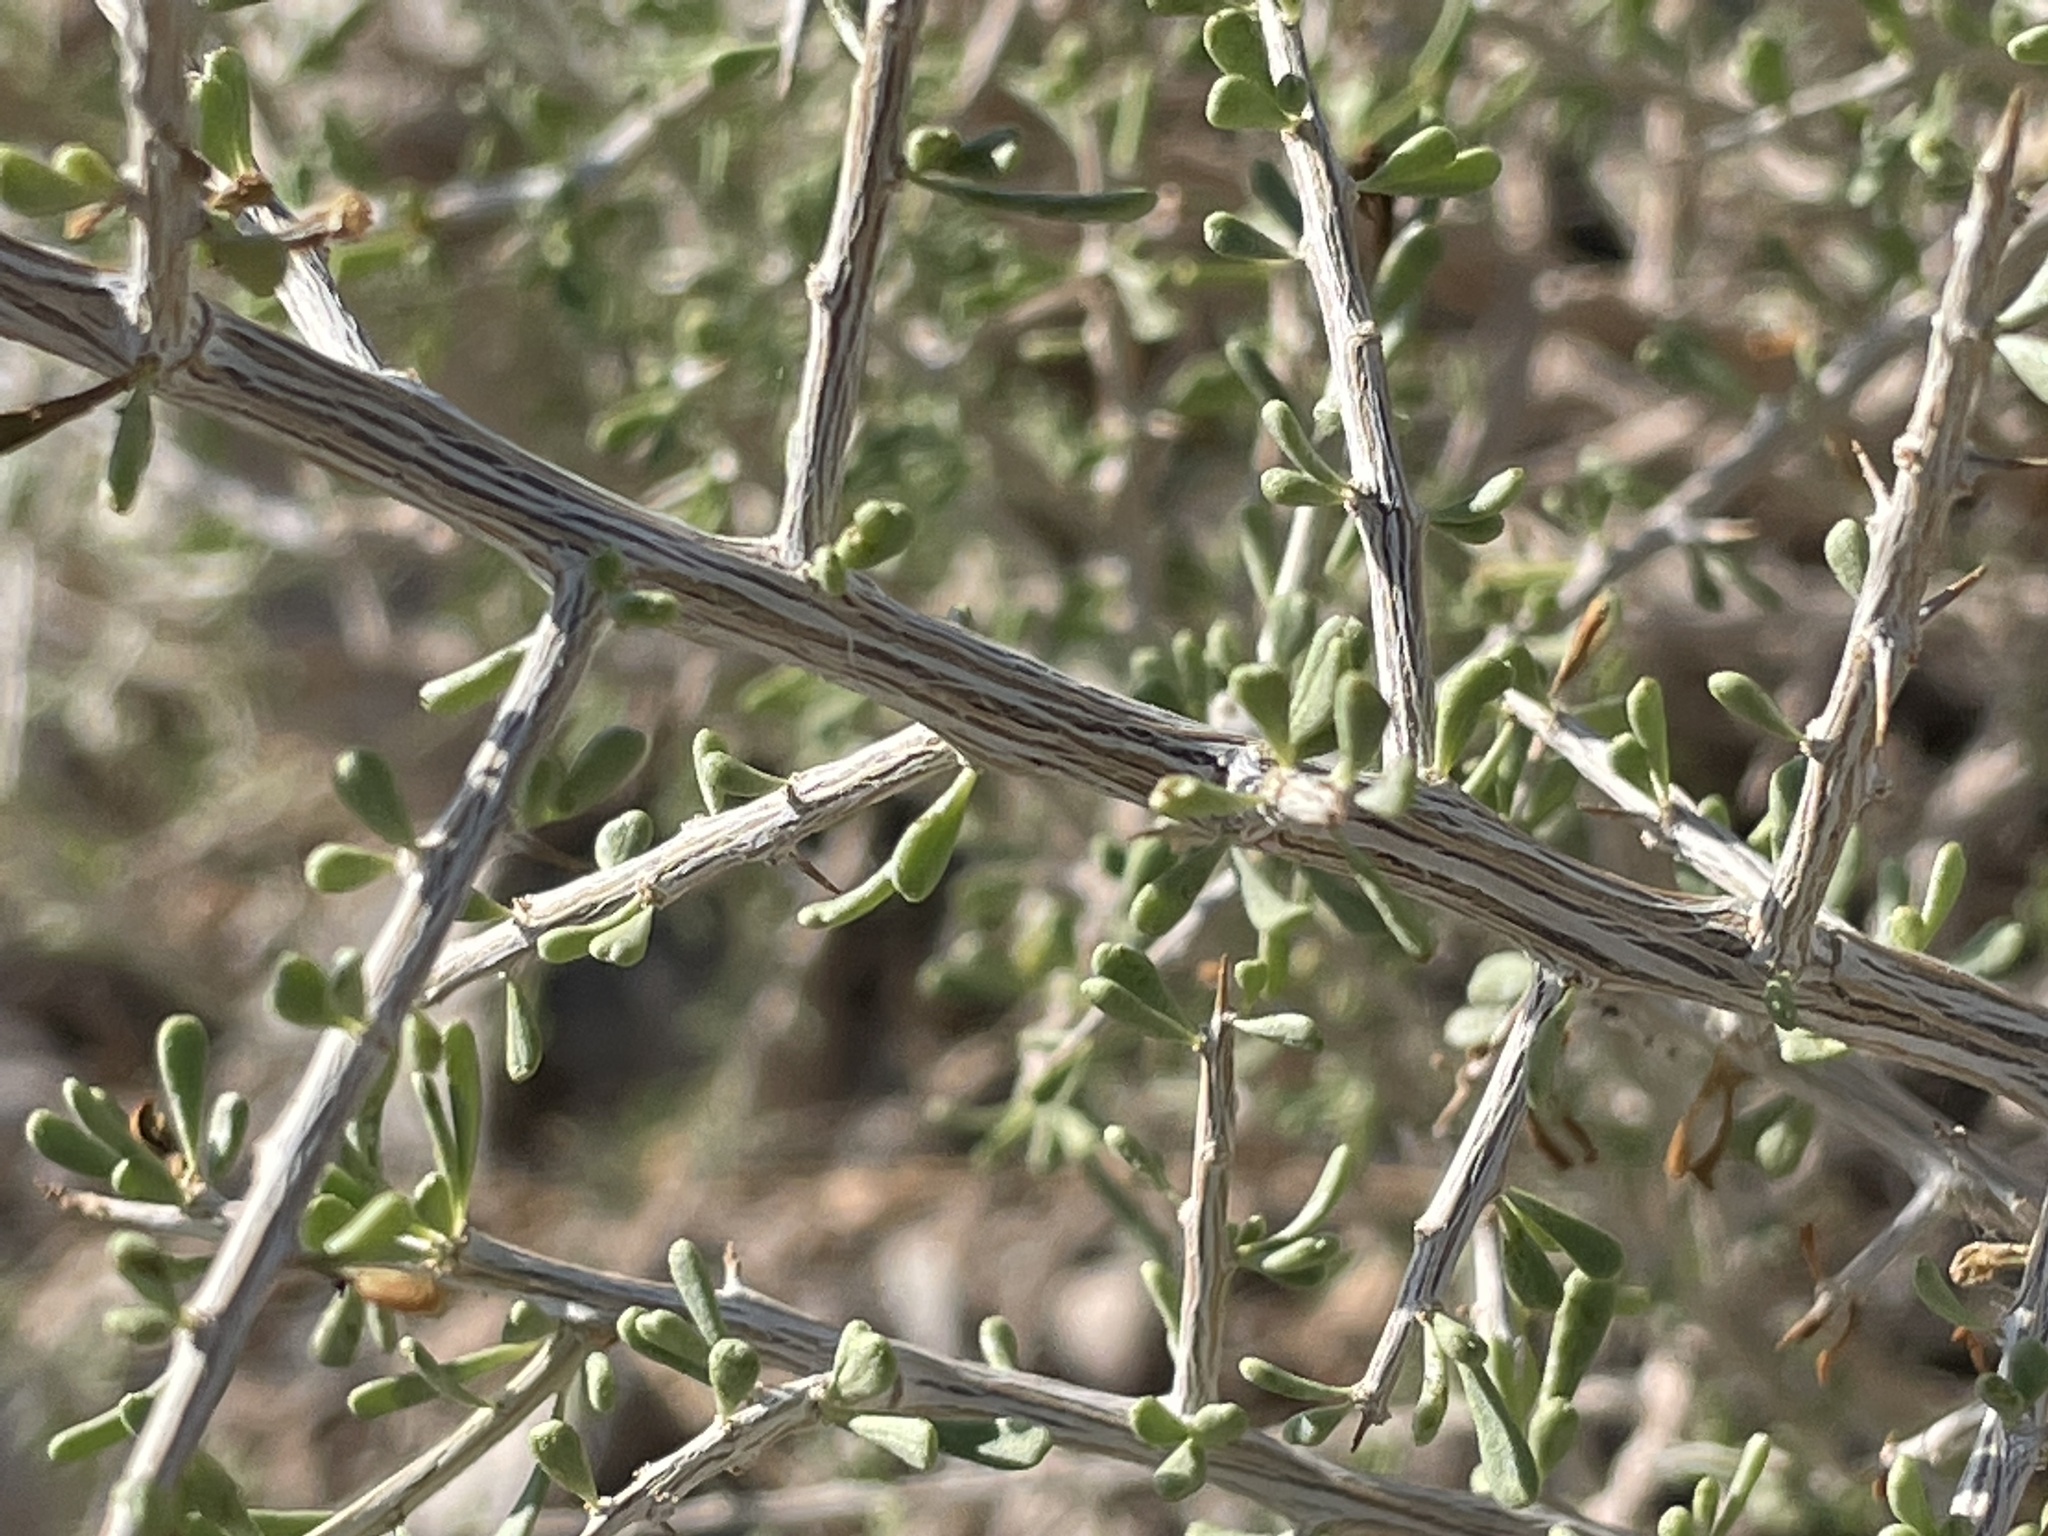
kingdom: Plantae
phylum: Tracheophyta
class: Magnoliopsida
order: Solanales
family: Solanaceae
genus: Lycium
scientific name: Lycium andersonii
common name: Water-jacket
